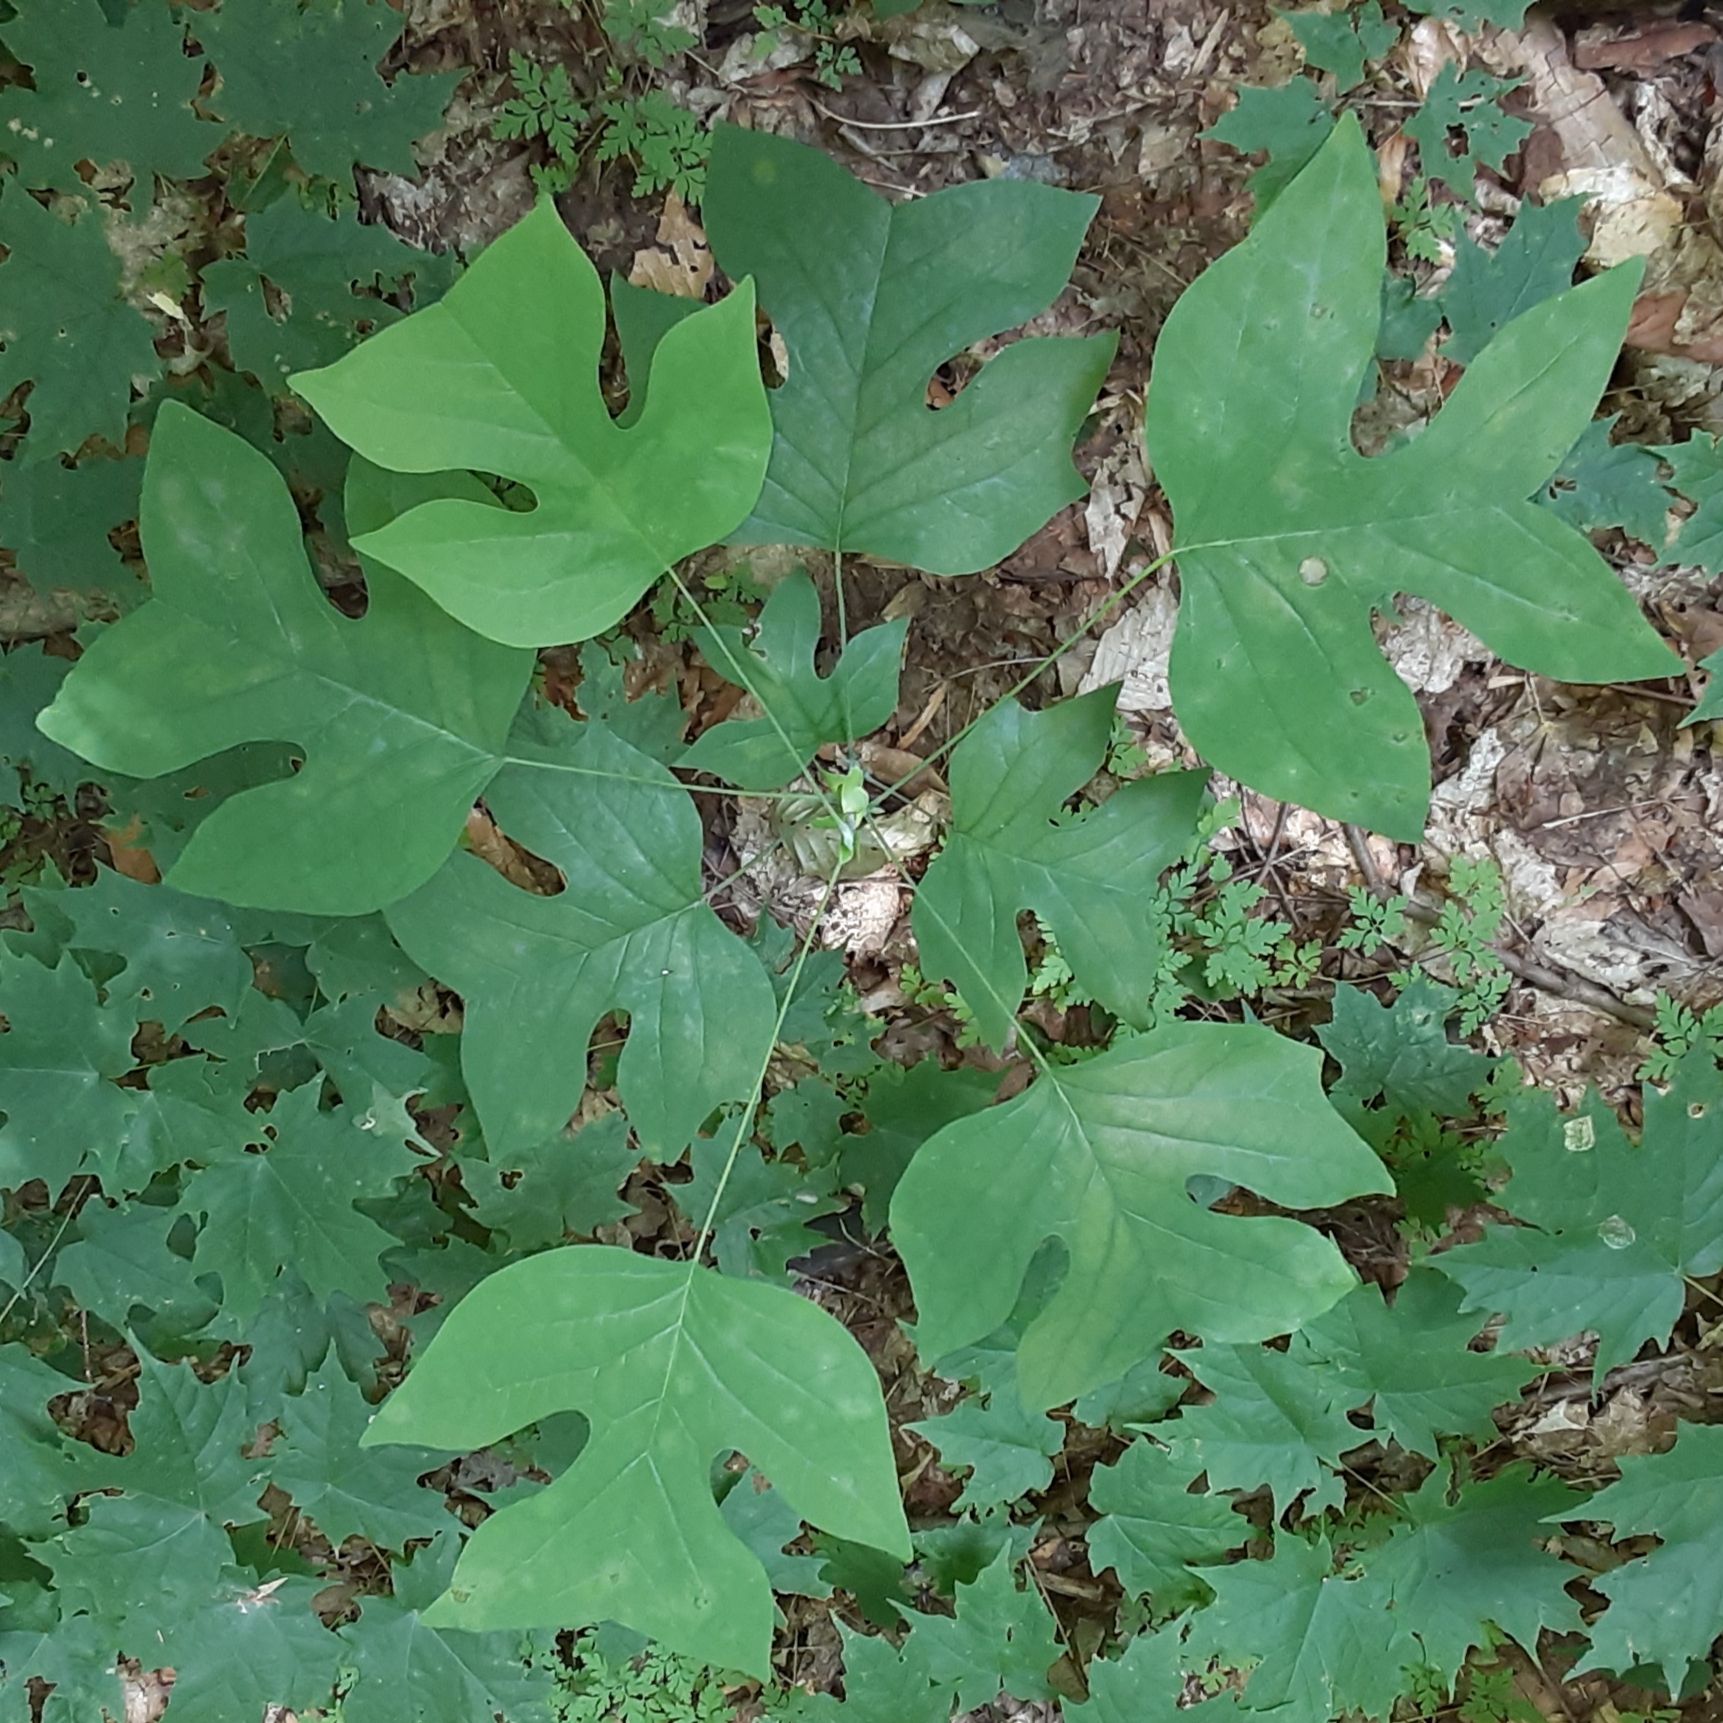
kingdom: Plantae
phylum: Tracheophyta
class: Magnoliopsida
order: Magnoliales
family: Magnoliaceae
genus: Liriodendron
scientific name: Liriodendron tulipifera
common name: Tulip tree
